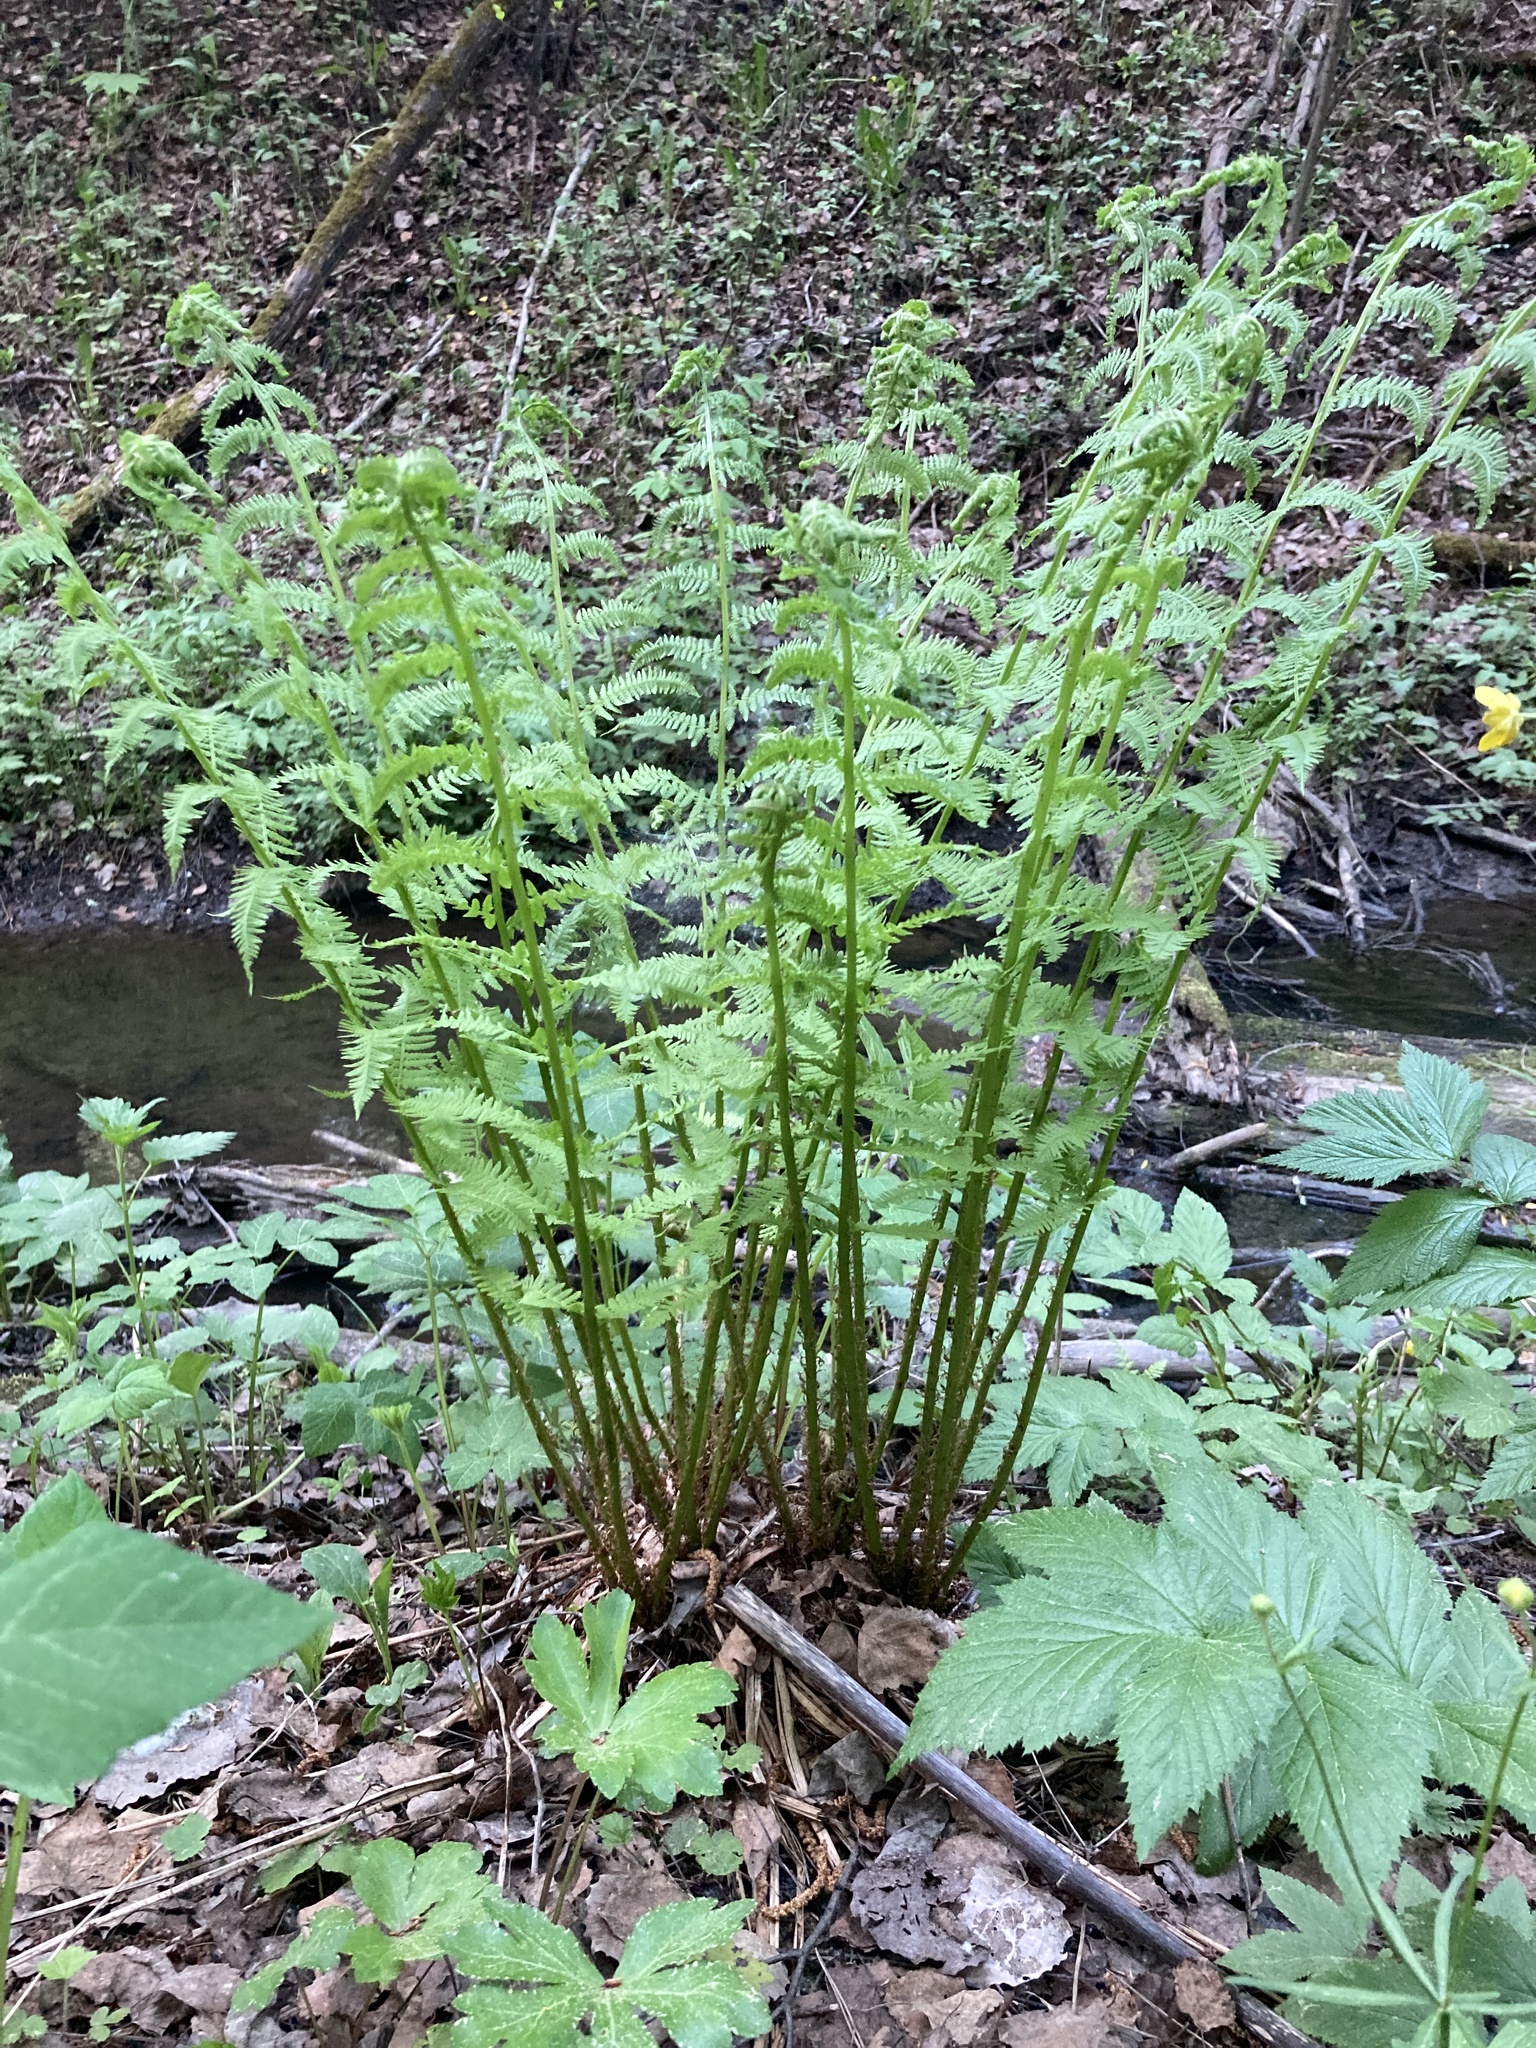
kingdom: Plantae
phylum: Tracheophyta
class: Polypodiopsida
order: Polypodiales
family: Athyriaceae
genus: Athyrium
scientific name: Athyrium filix-femina
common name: Lady fern
